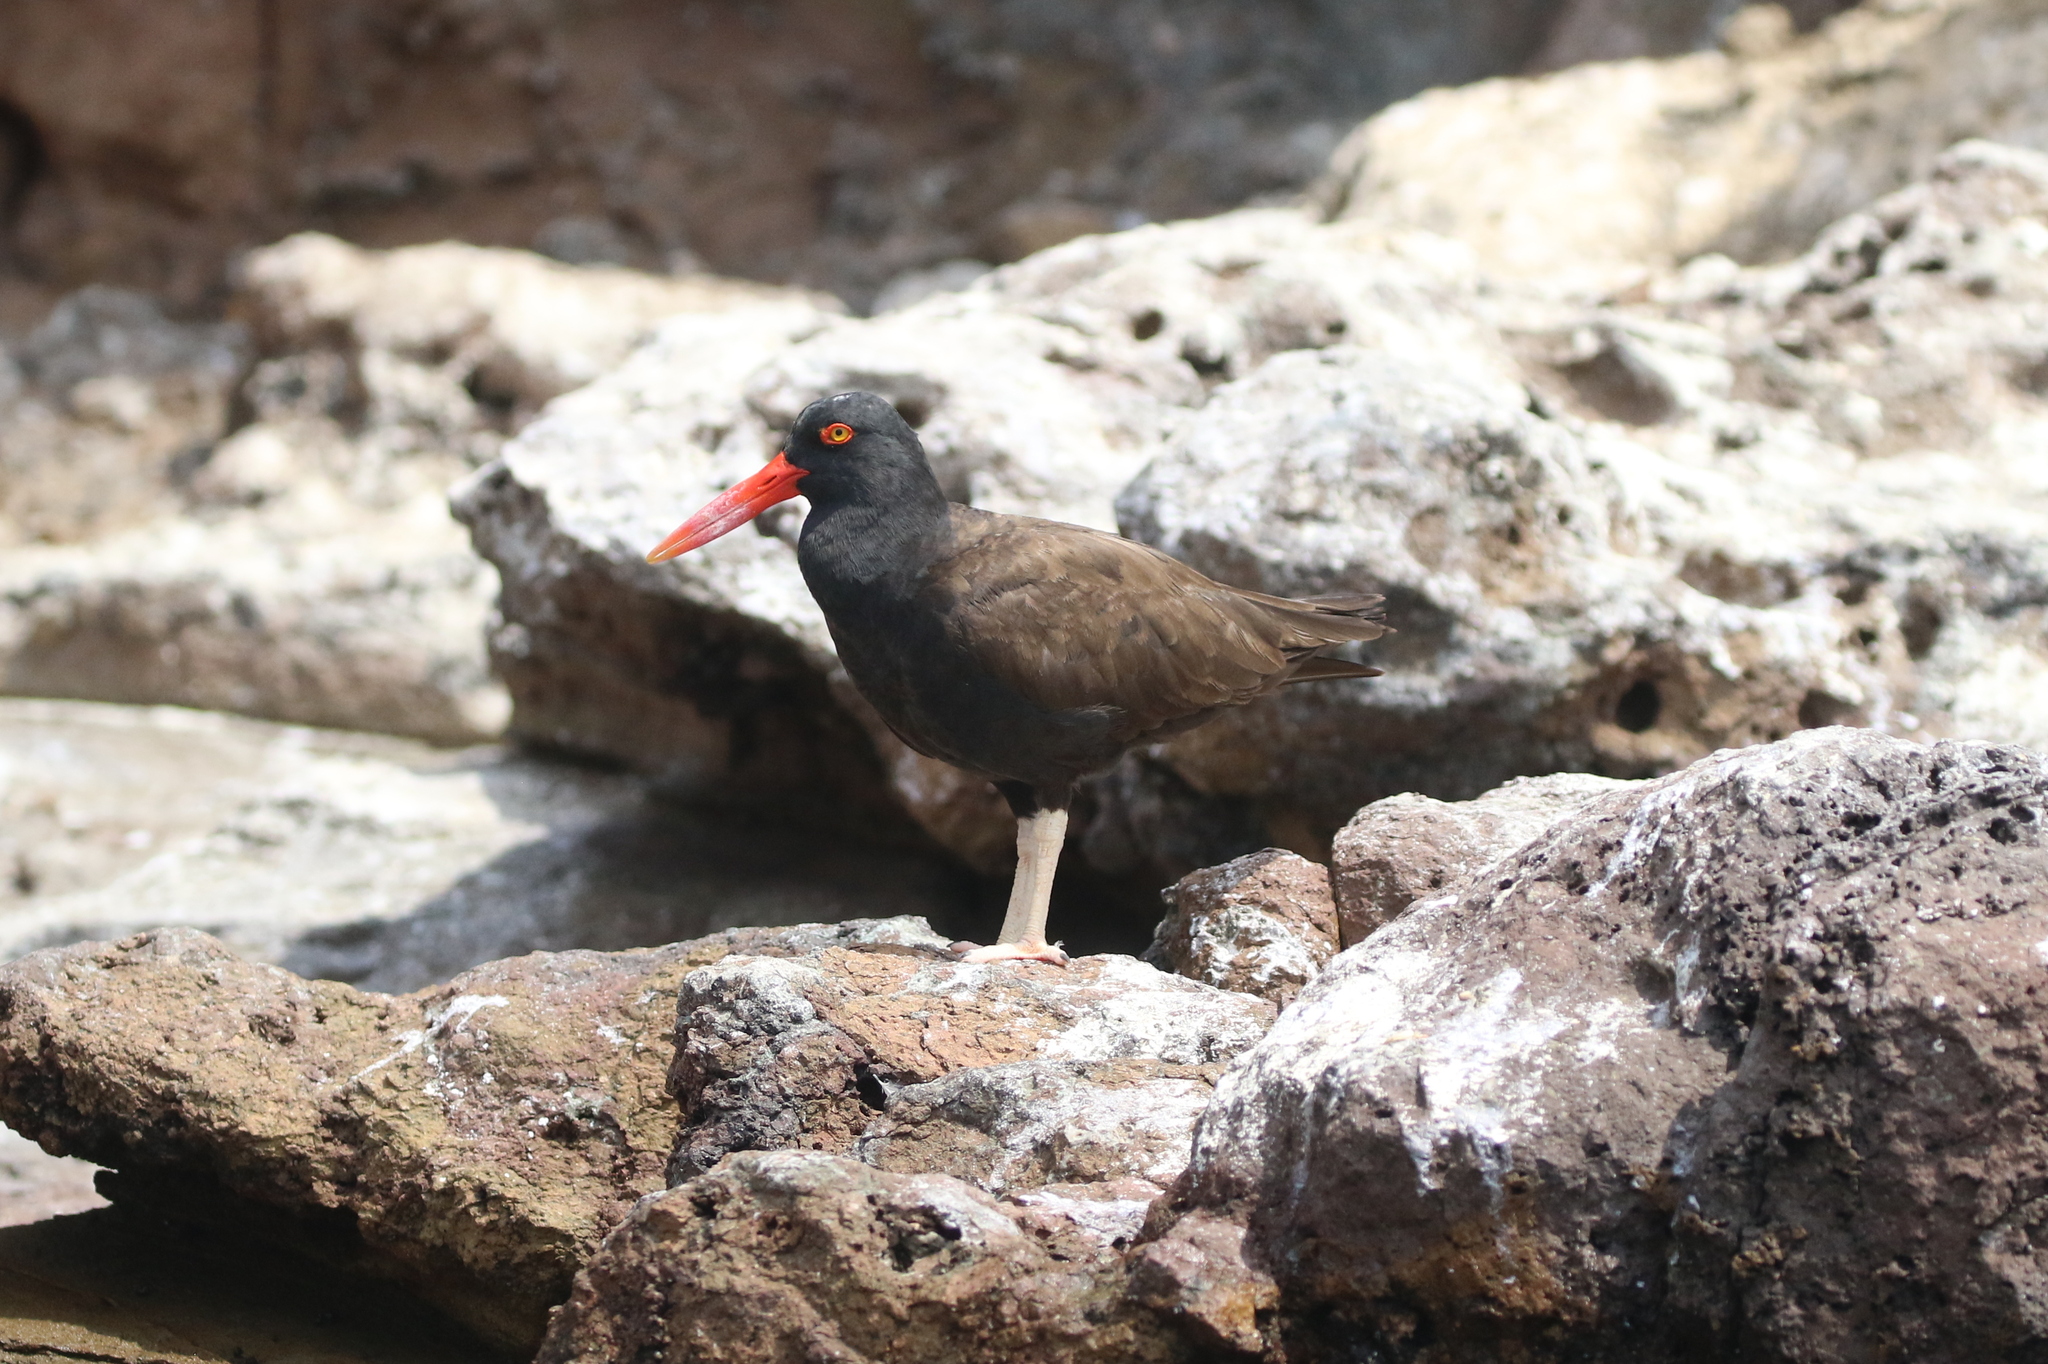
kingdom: Animalia
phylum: Chordata
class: Aves
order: Charadriiformes
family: Haematopodidae
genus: Haematopus
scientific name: Haematopus ater
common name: Blackish oystercatcher
